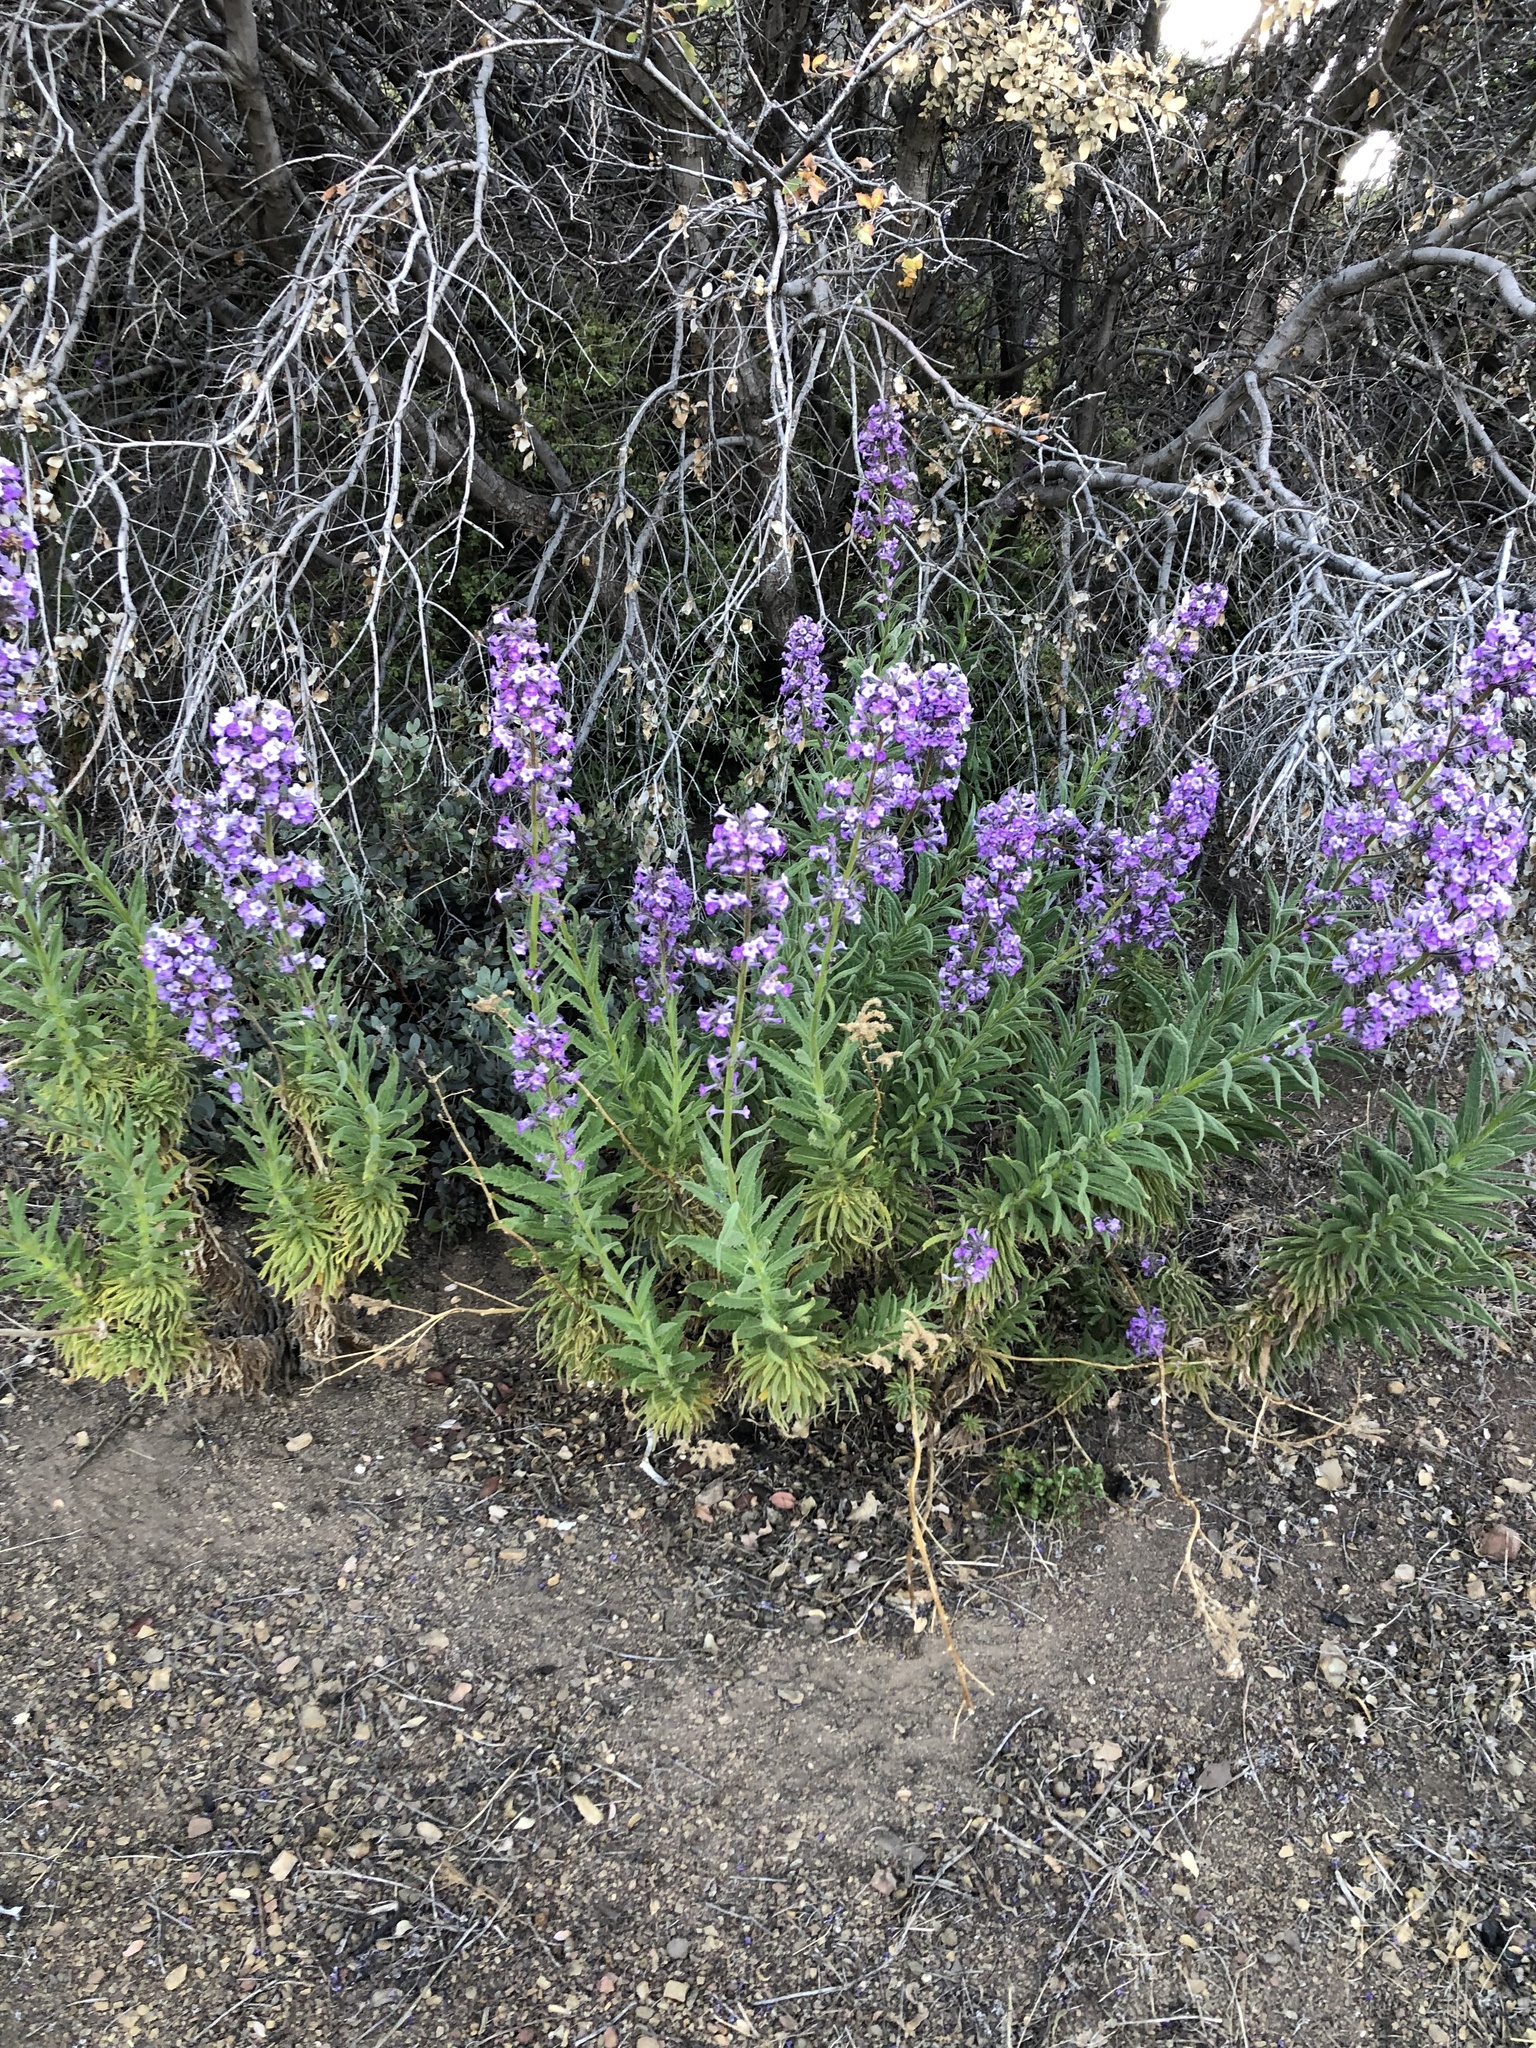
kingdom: Plantae
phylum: Tracheophyta
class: Magnoliopsida
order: Boraginales
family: Namaceae
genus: Turricula
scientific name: Turricula parryi
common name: Poodle-dog-bush
